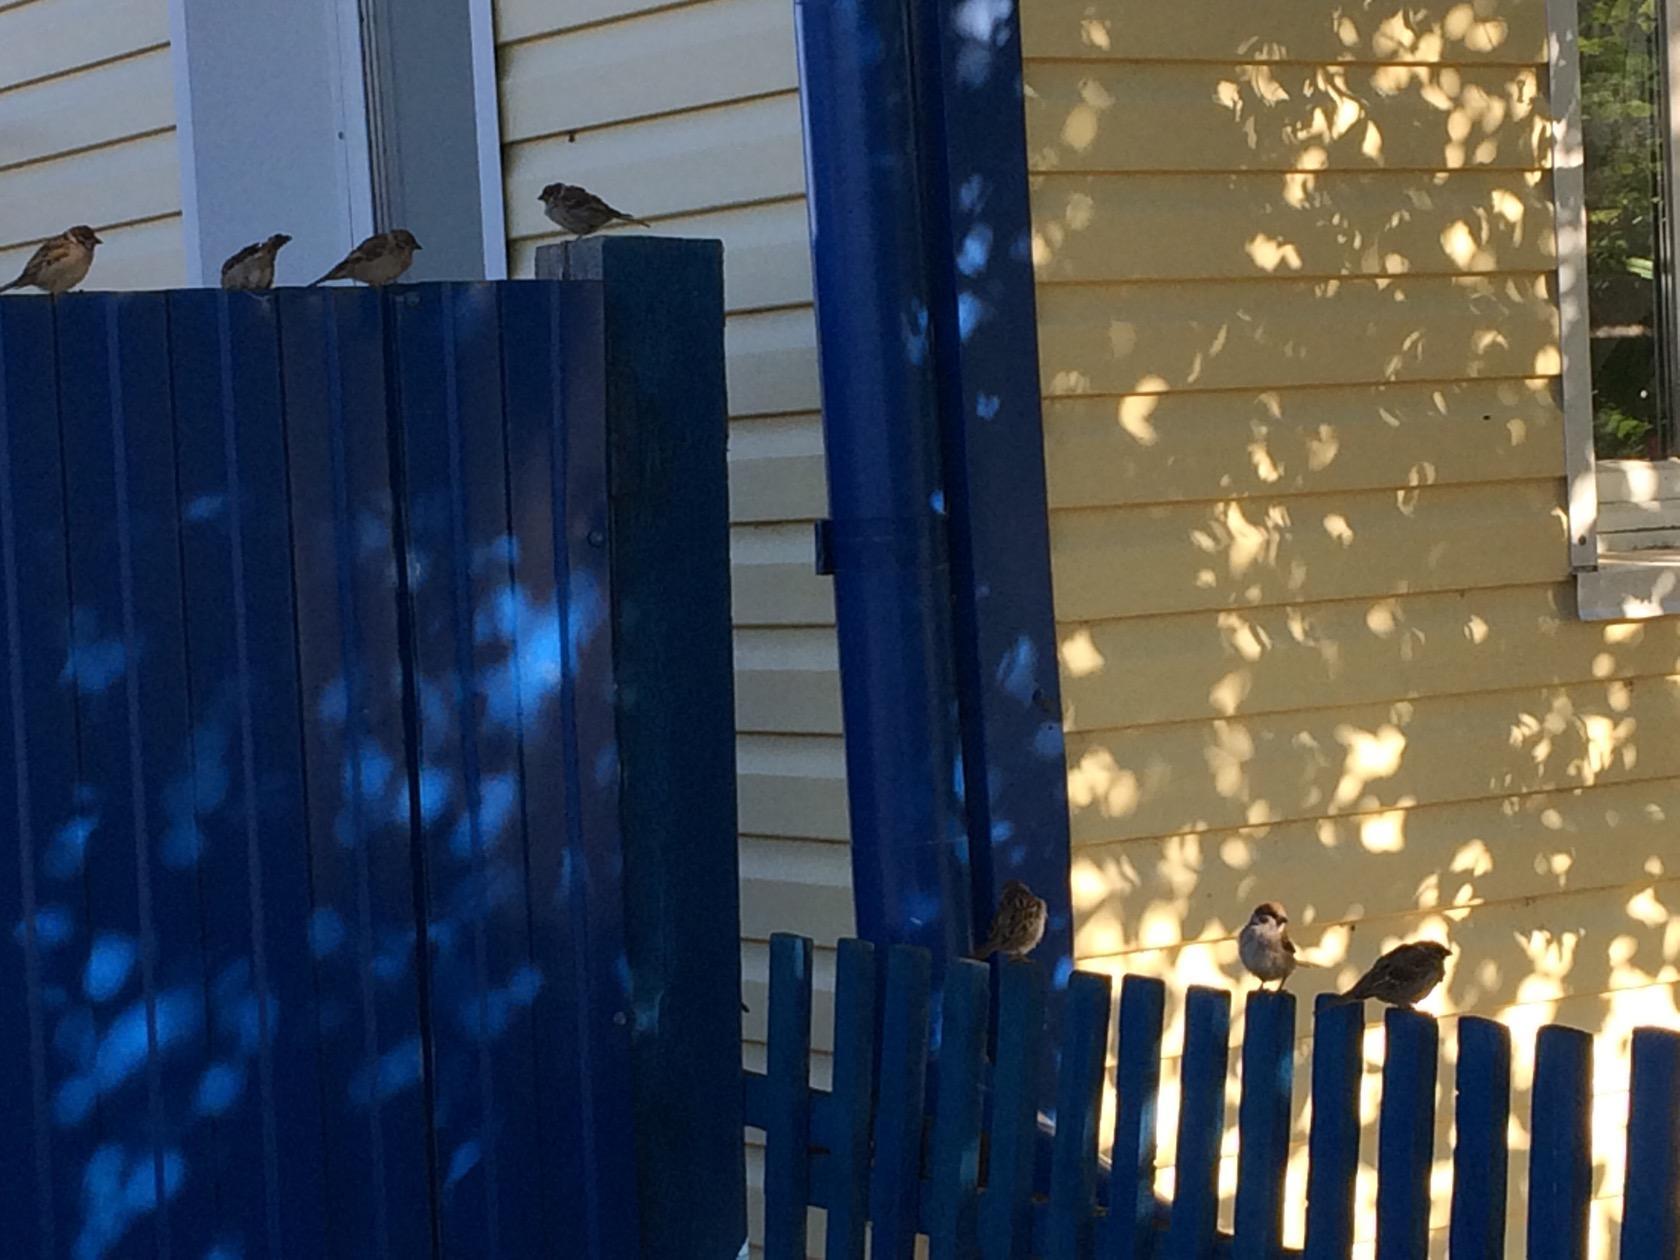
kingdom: Animalia
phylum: Chordata
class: Aves
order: Passeriformes
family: Passeridae
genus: Passer
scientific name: Passer montanus
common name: Eurasian tree sparrow
